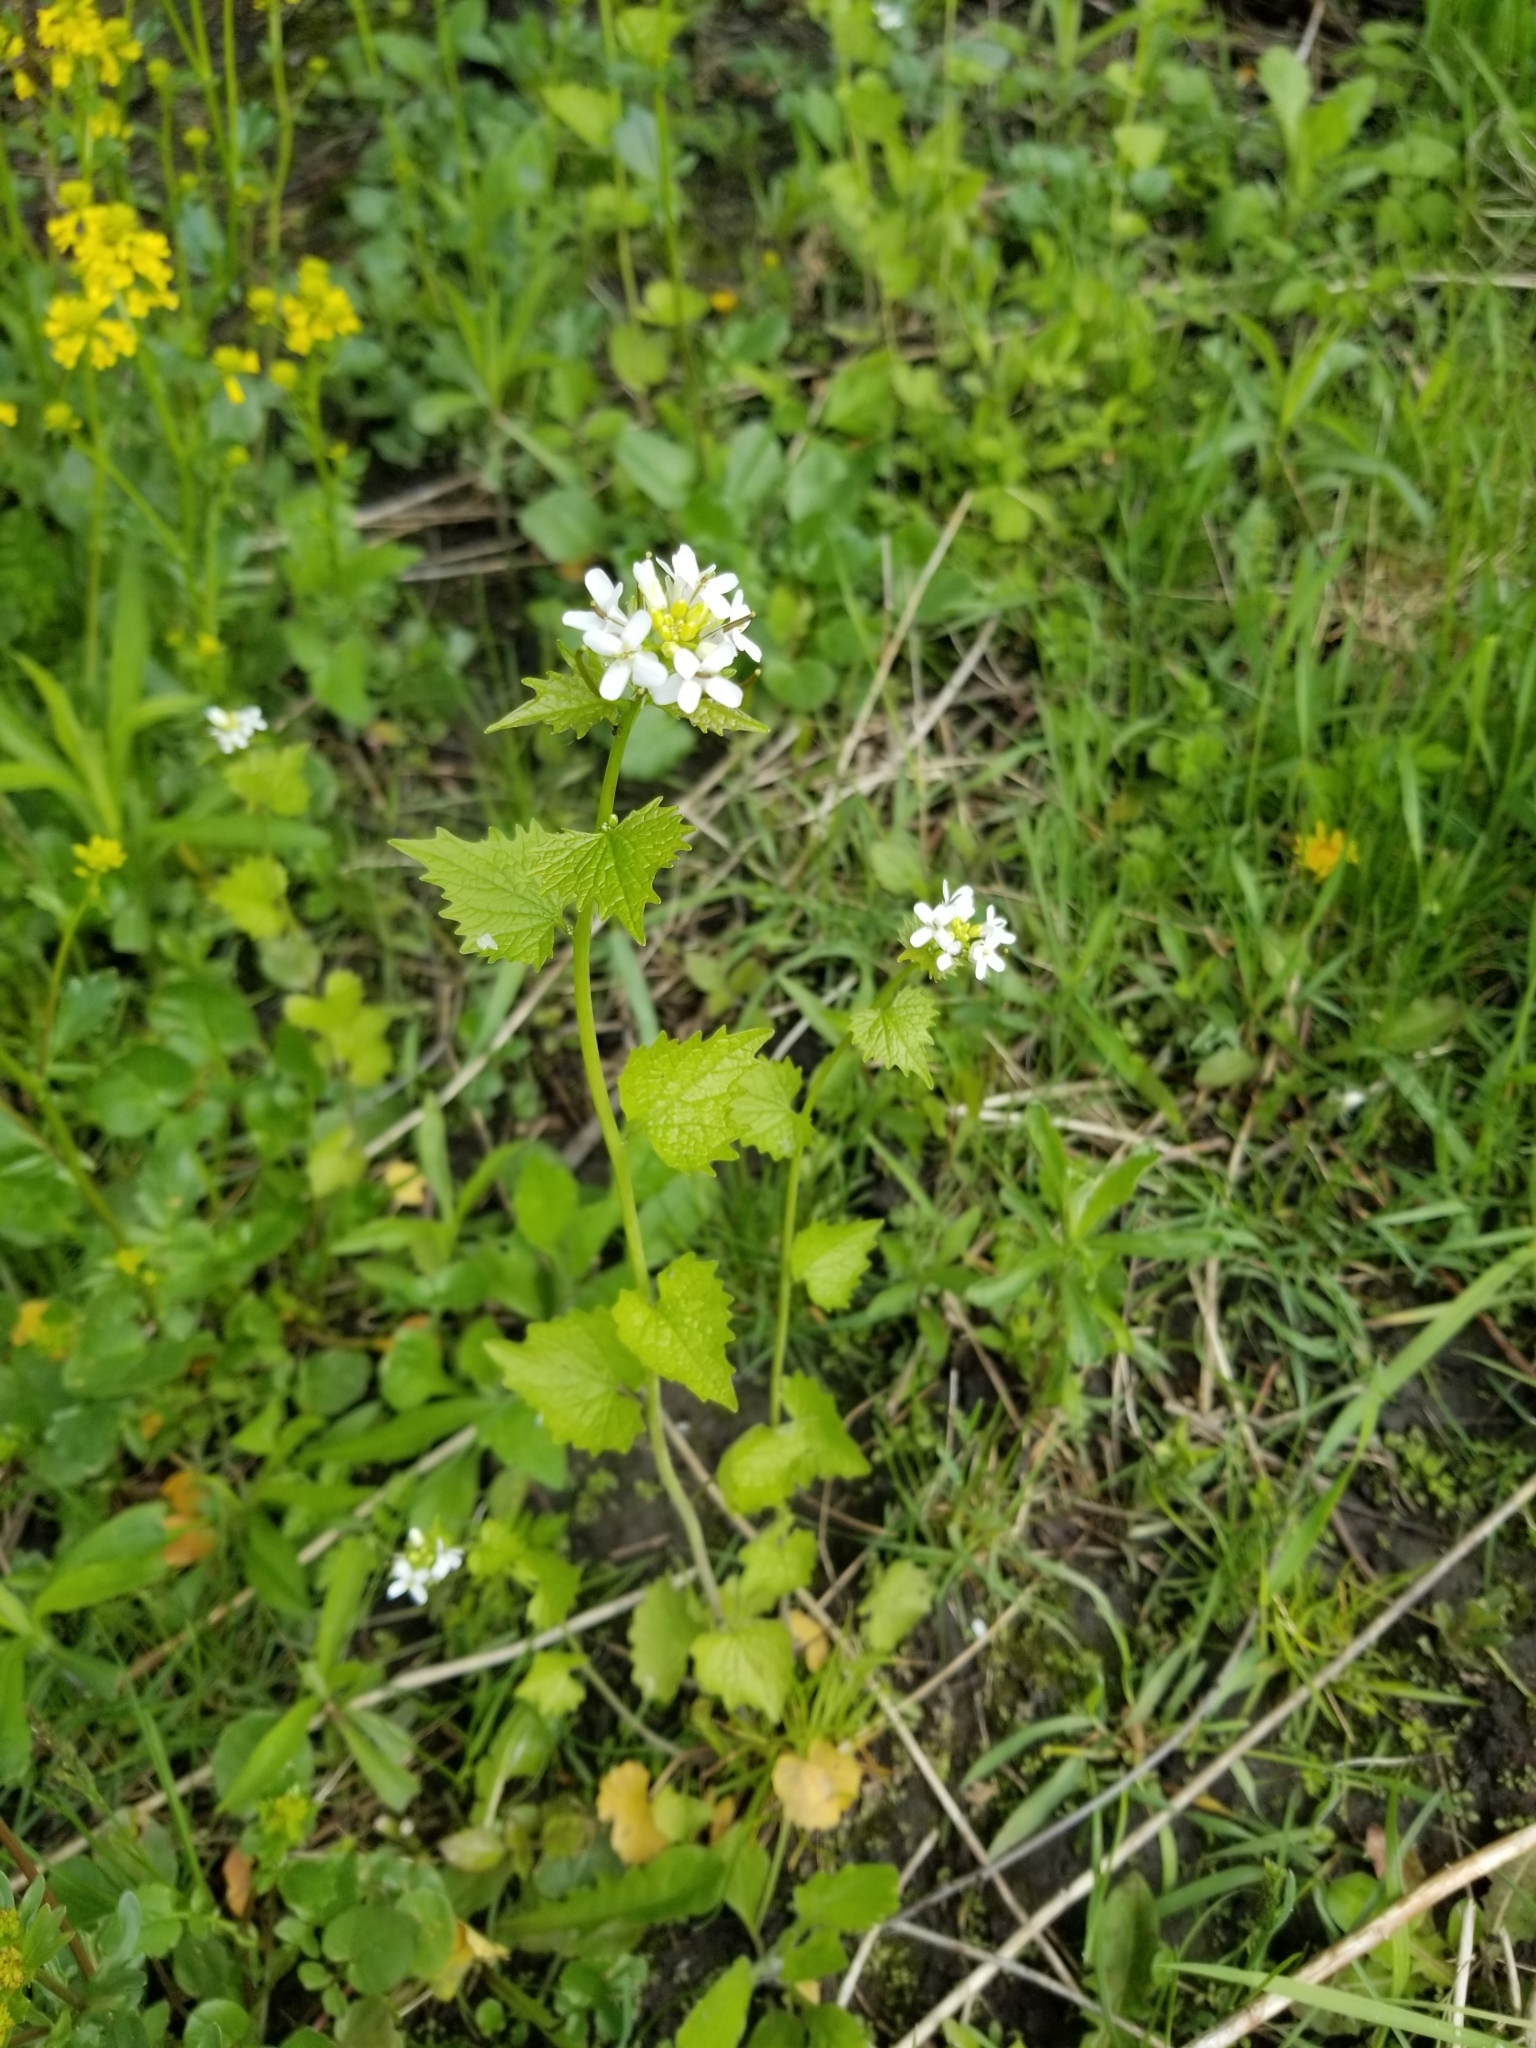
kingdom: Plantae
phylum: Tracheophyta
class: Magnoliopsida
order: Brassicales
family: Brassicaceae
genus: Alliaria
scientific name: Alliaria petiolata
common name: Garlic mustard
